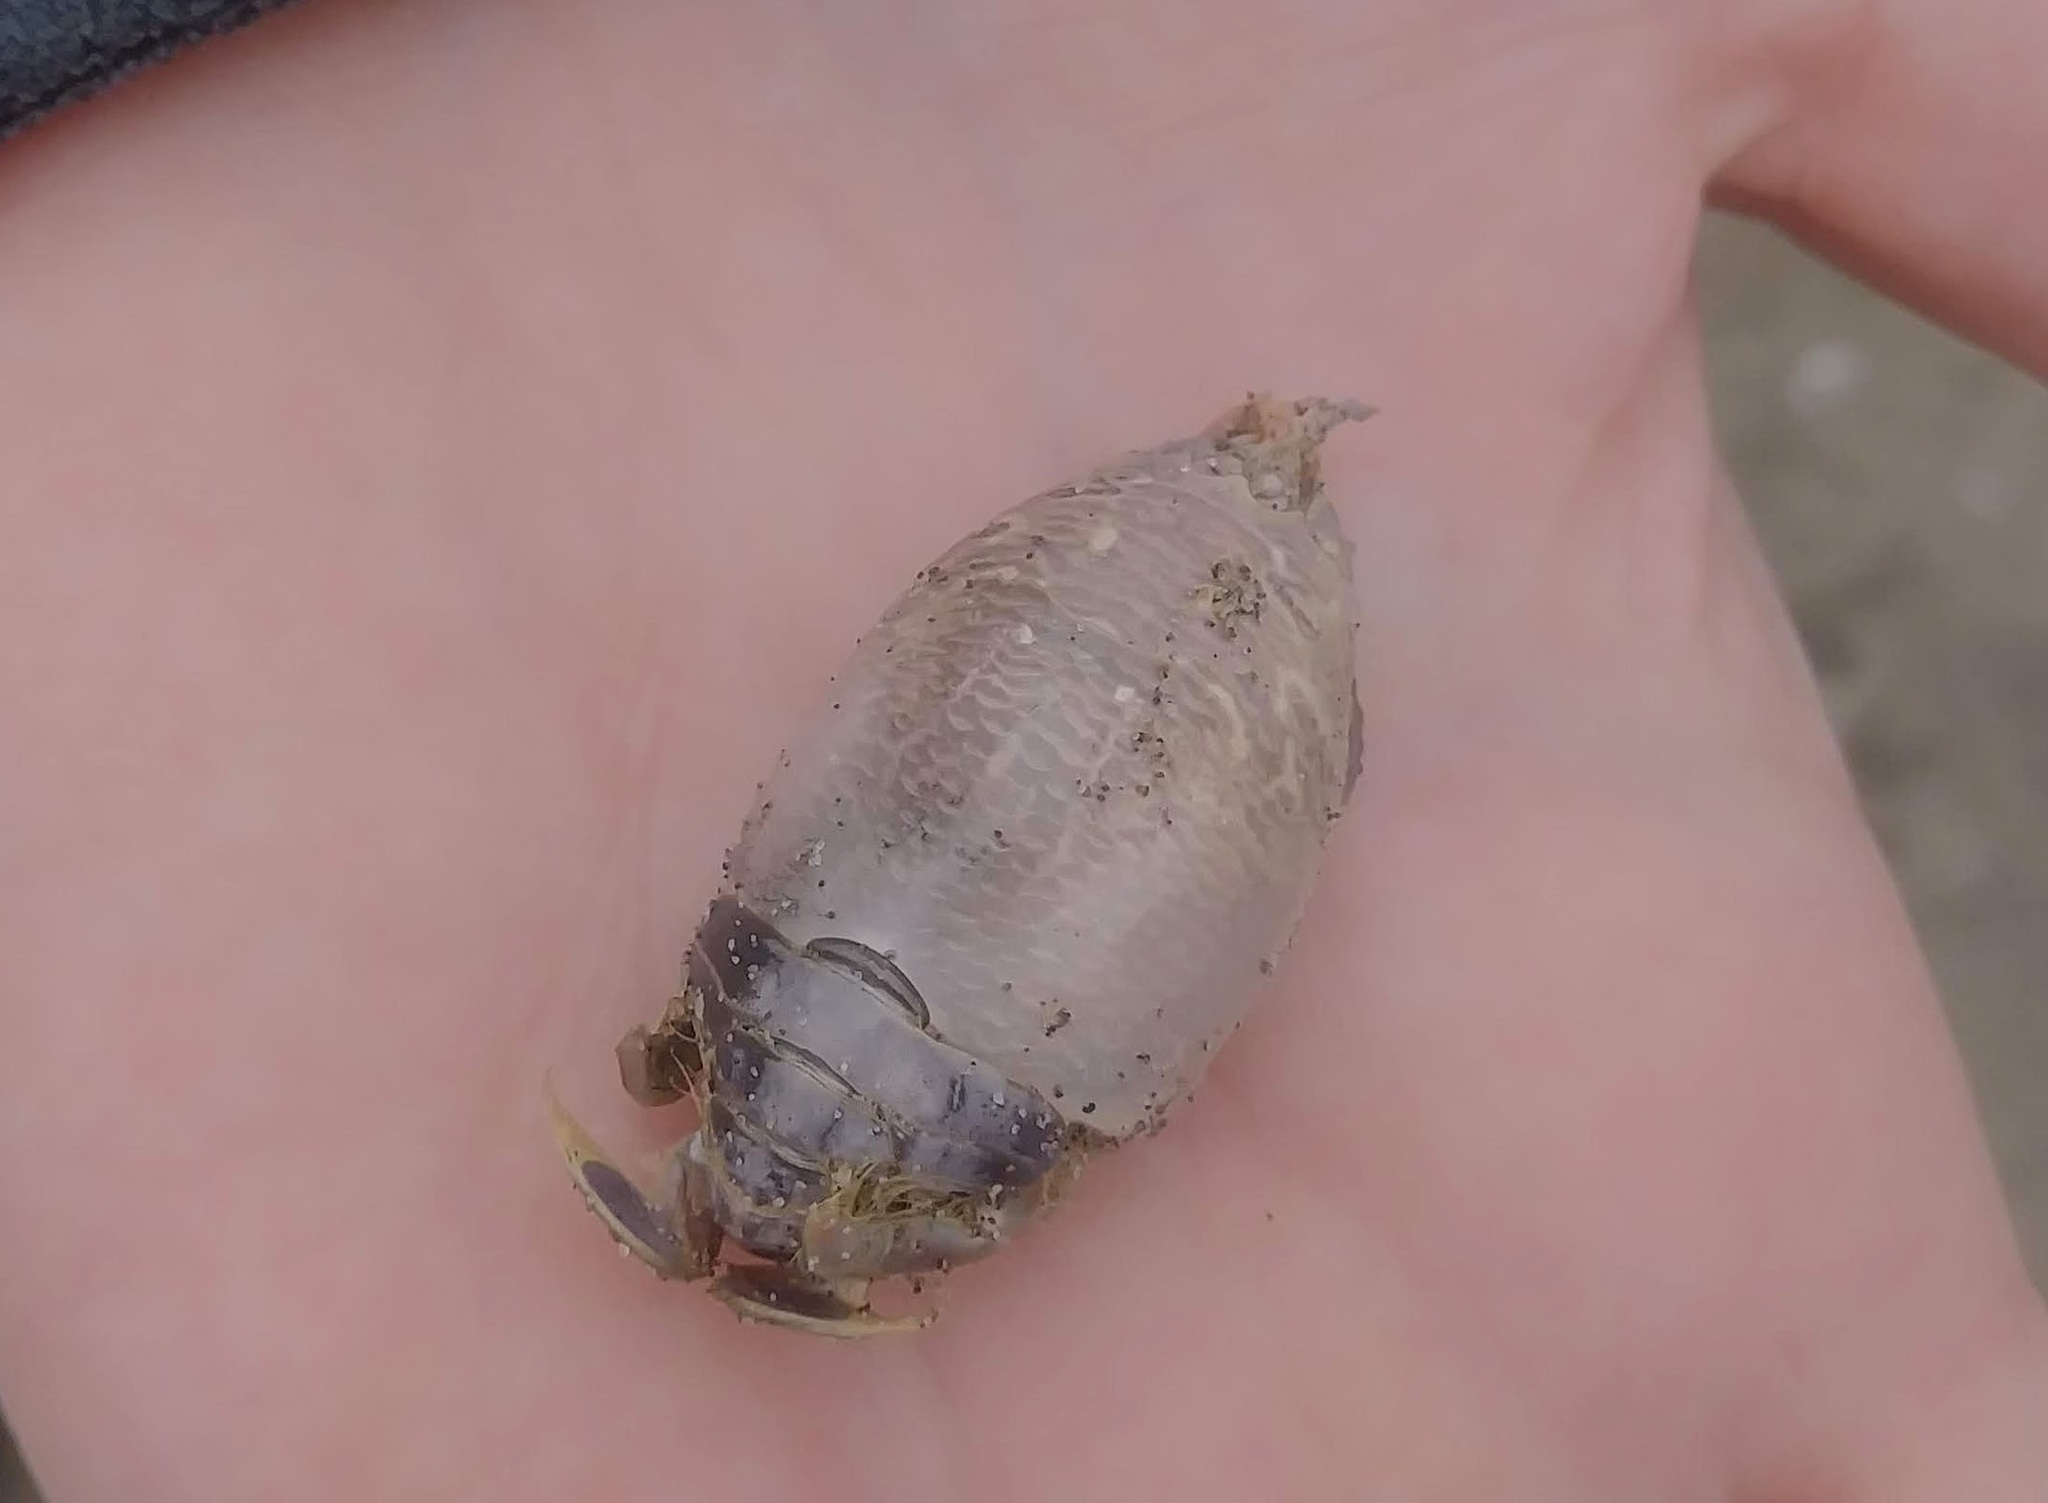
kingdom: Animalia
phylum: Arthropoda
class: Malacostraca
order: Decapoda
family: Hippidae
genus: Emerita
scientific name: Emerita analoga
